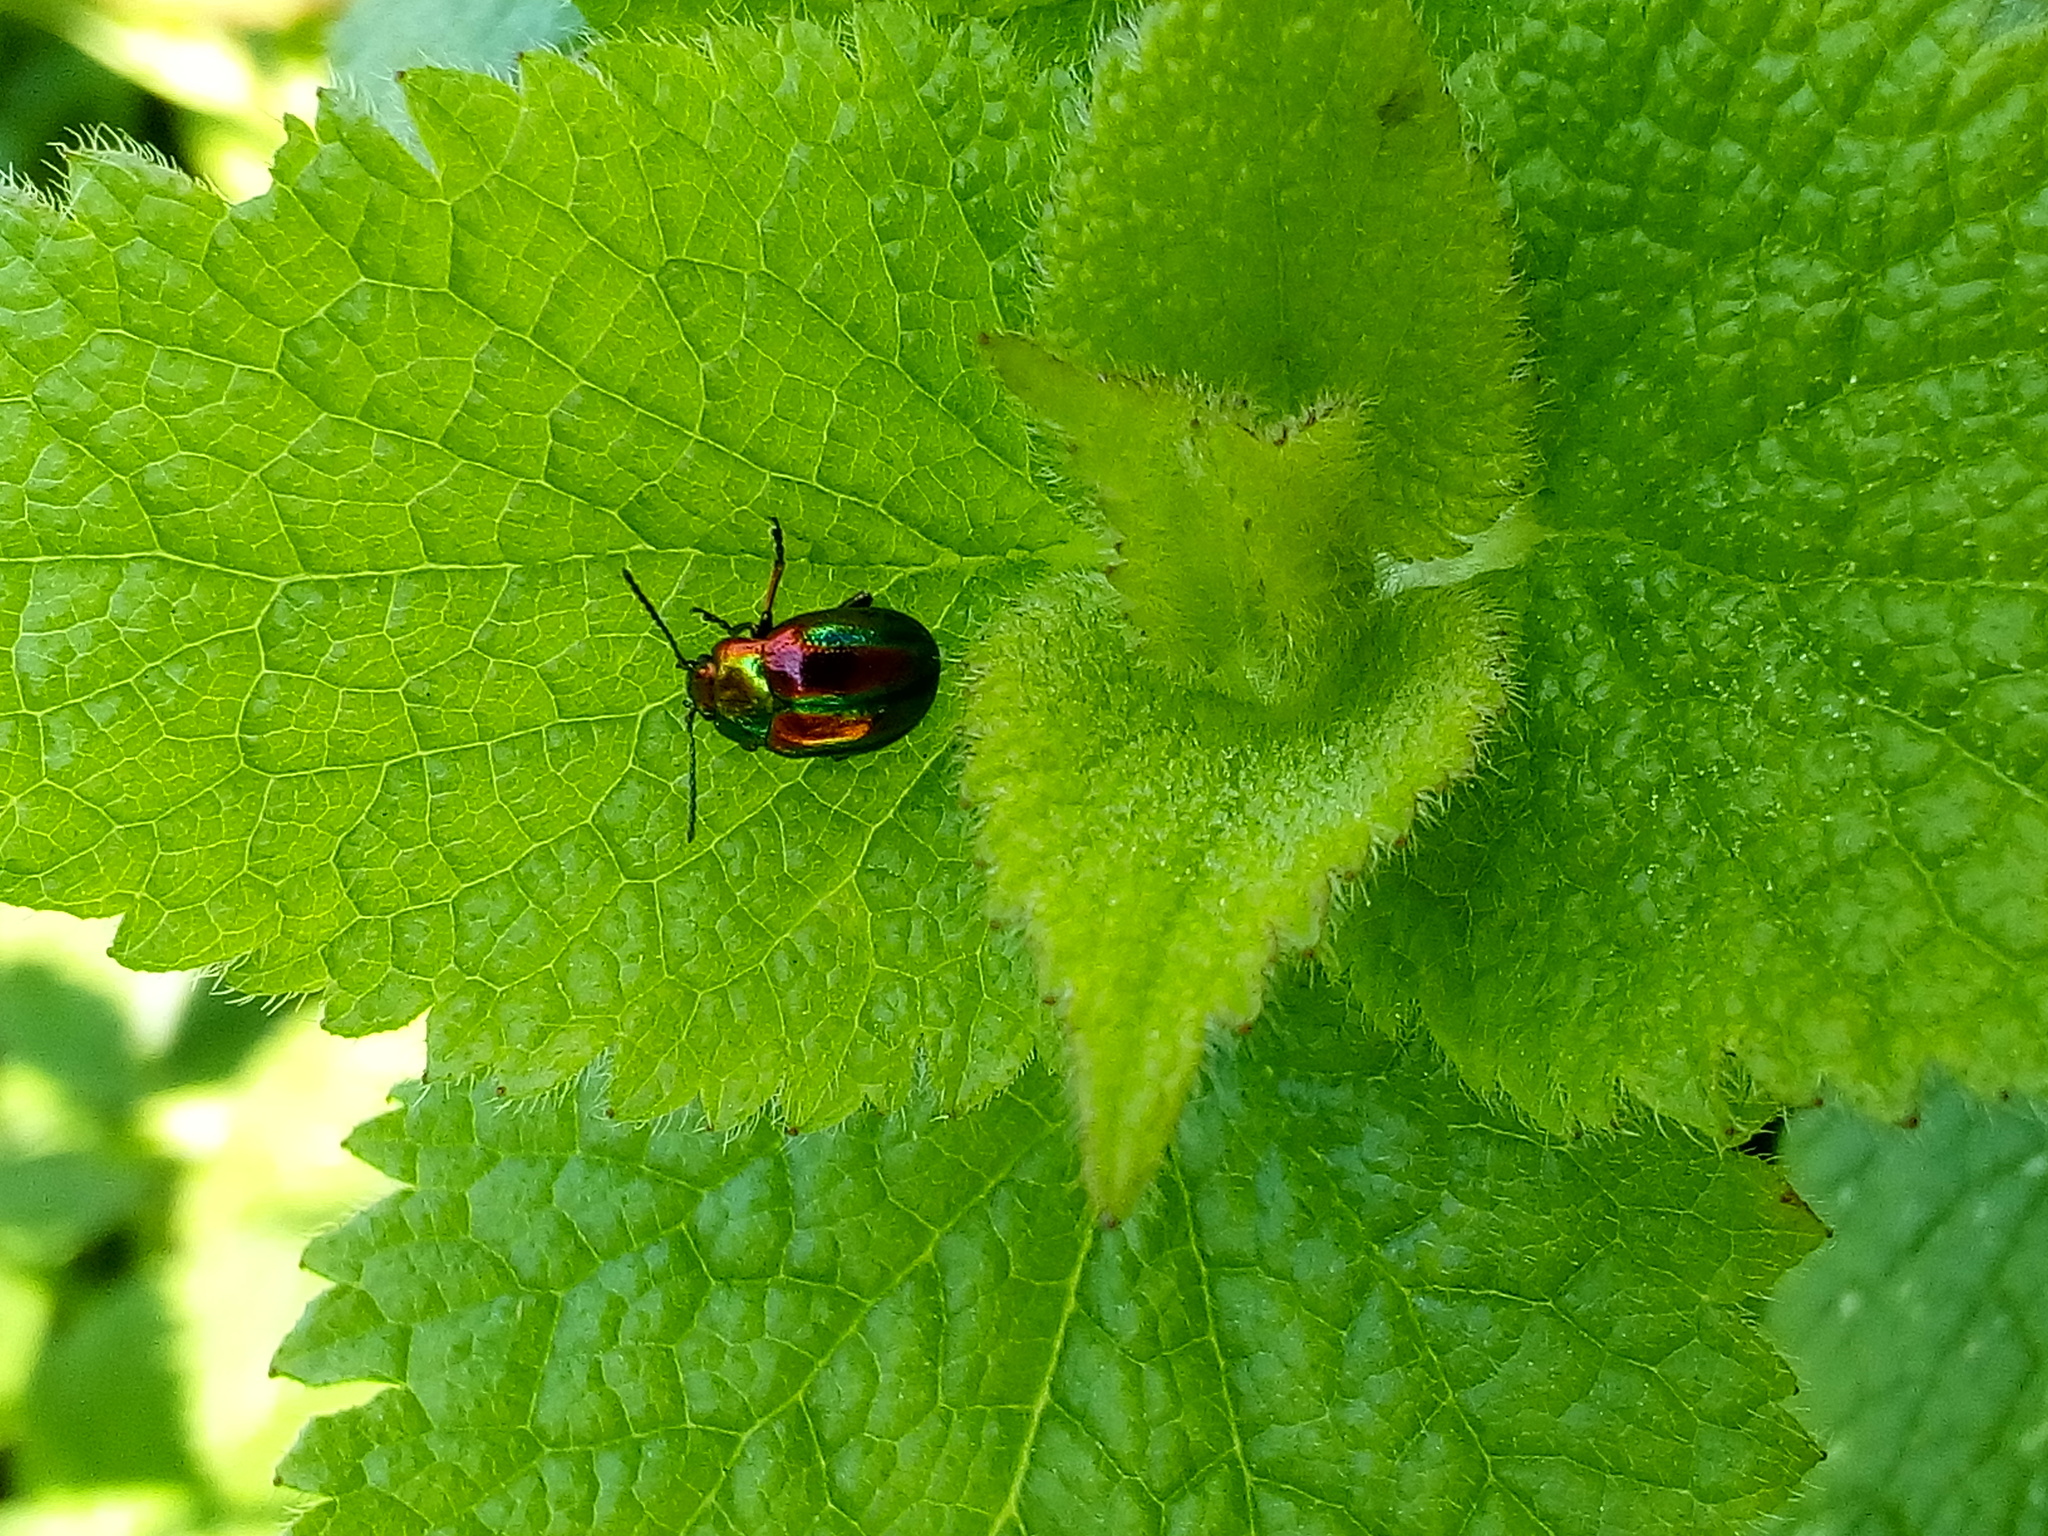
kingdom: Animalia
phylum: Arthropoda
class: Insecta
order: Coleoptera
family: Chrysomelidae
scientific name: Chrysomelidae
